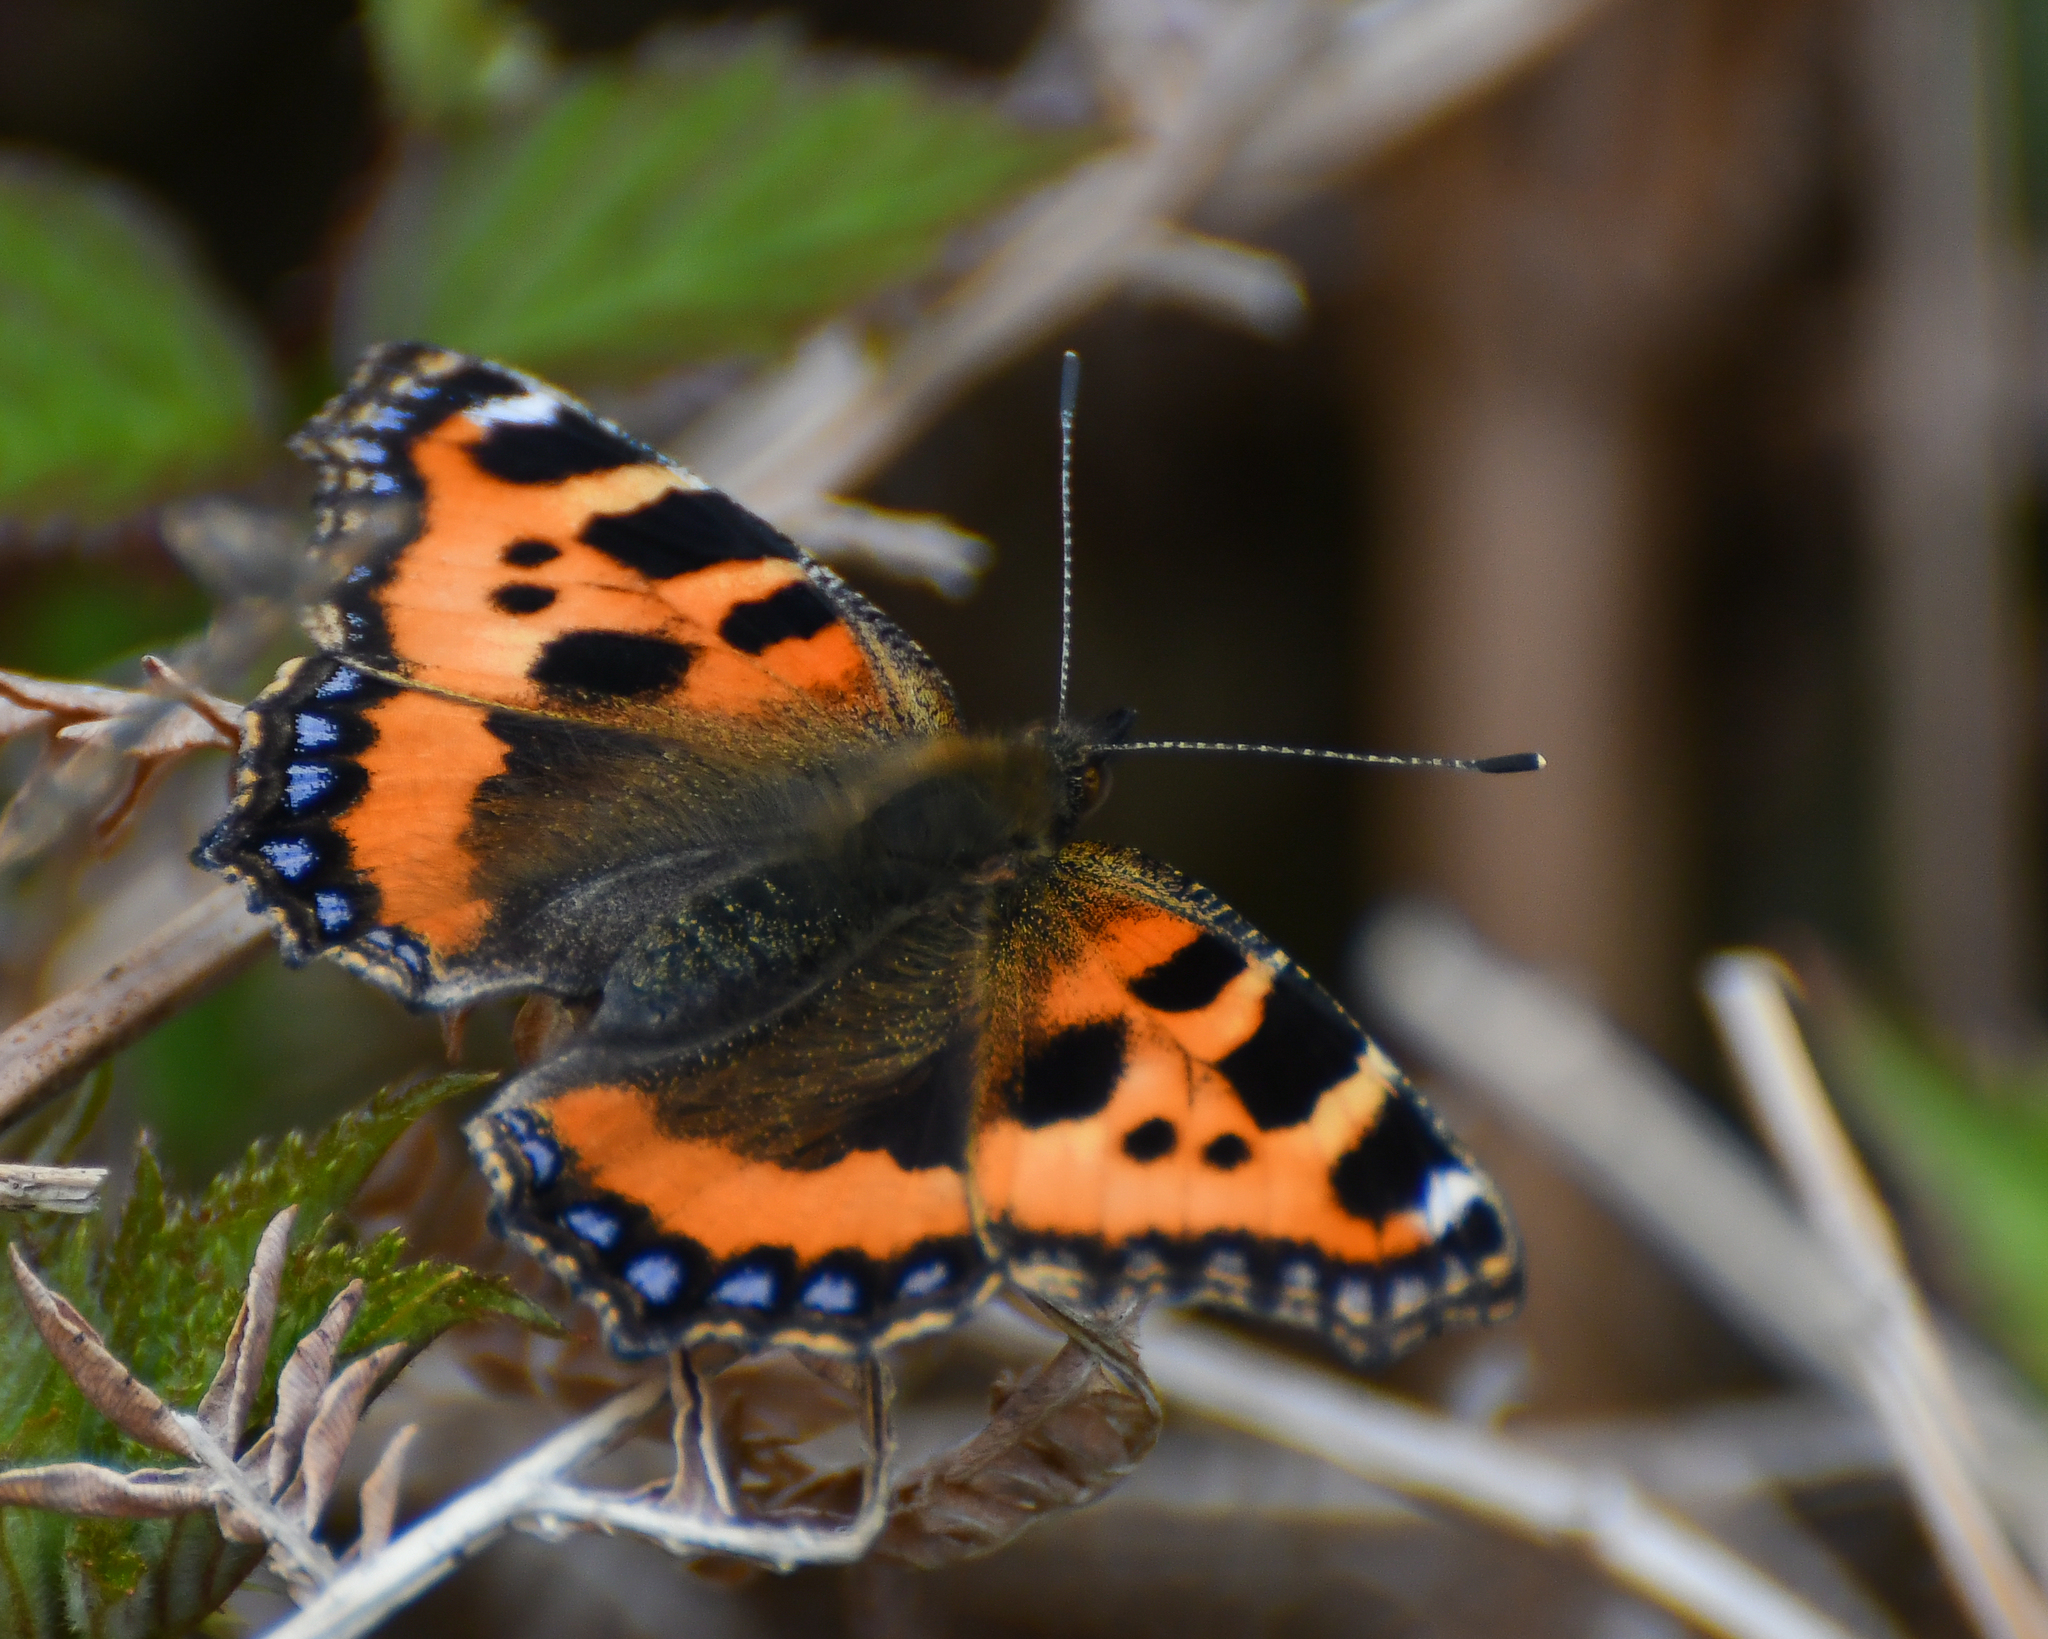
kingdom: Animalia
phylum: Arthropoda
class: Insecta
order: Lepidoptera
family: Nymphalidae
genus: Aglais
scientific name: Aglais urticae
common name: Small tortoiseshell
